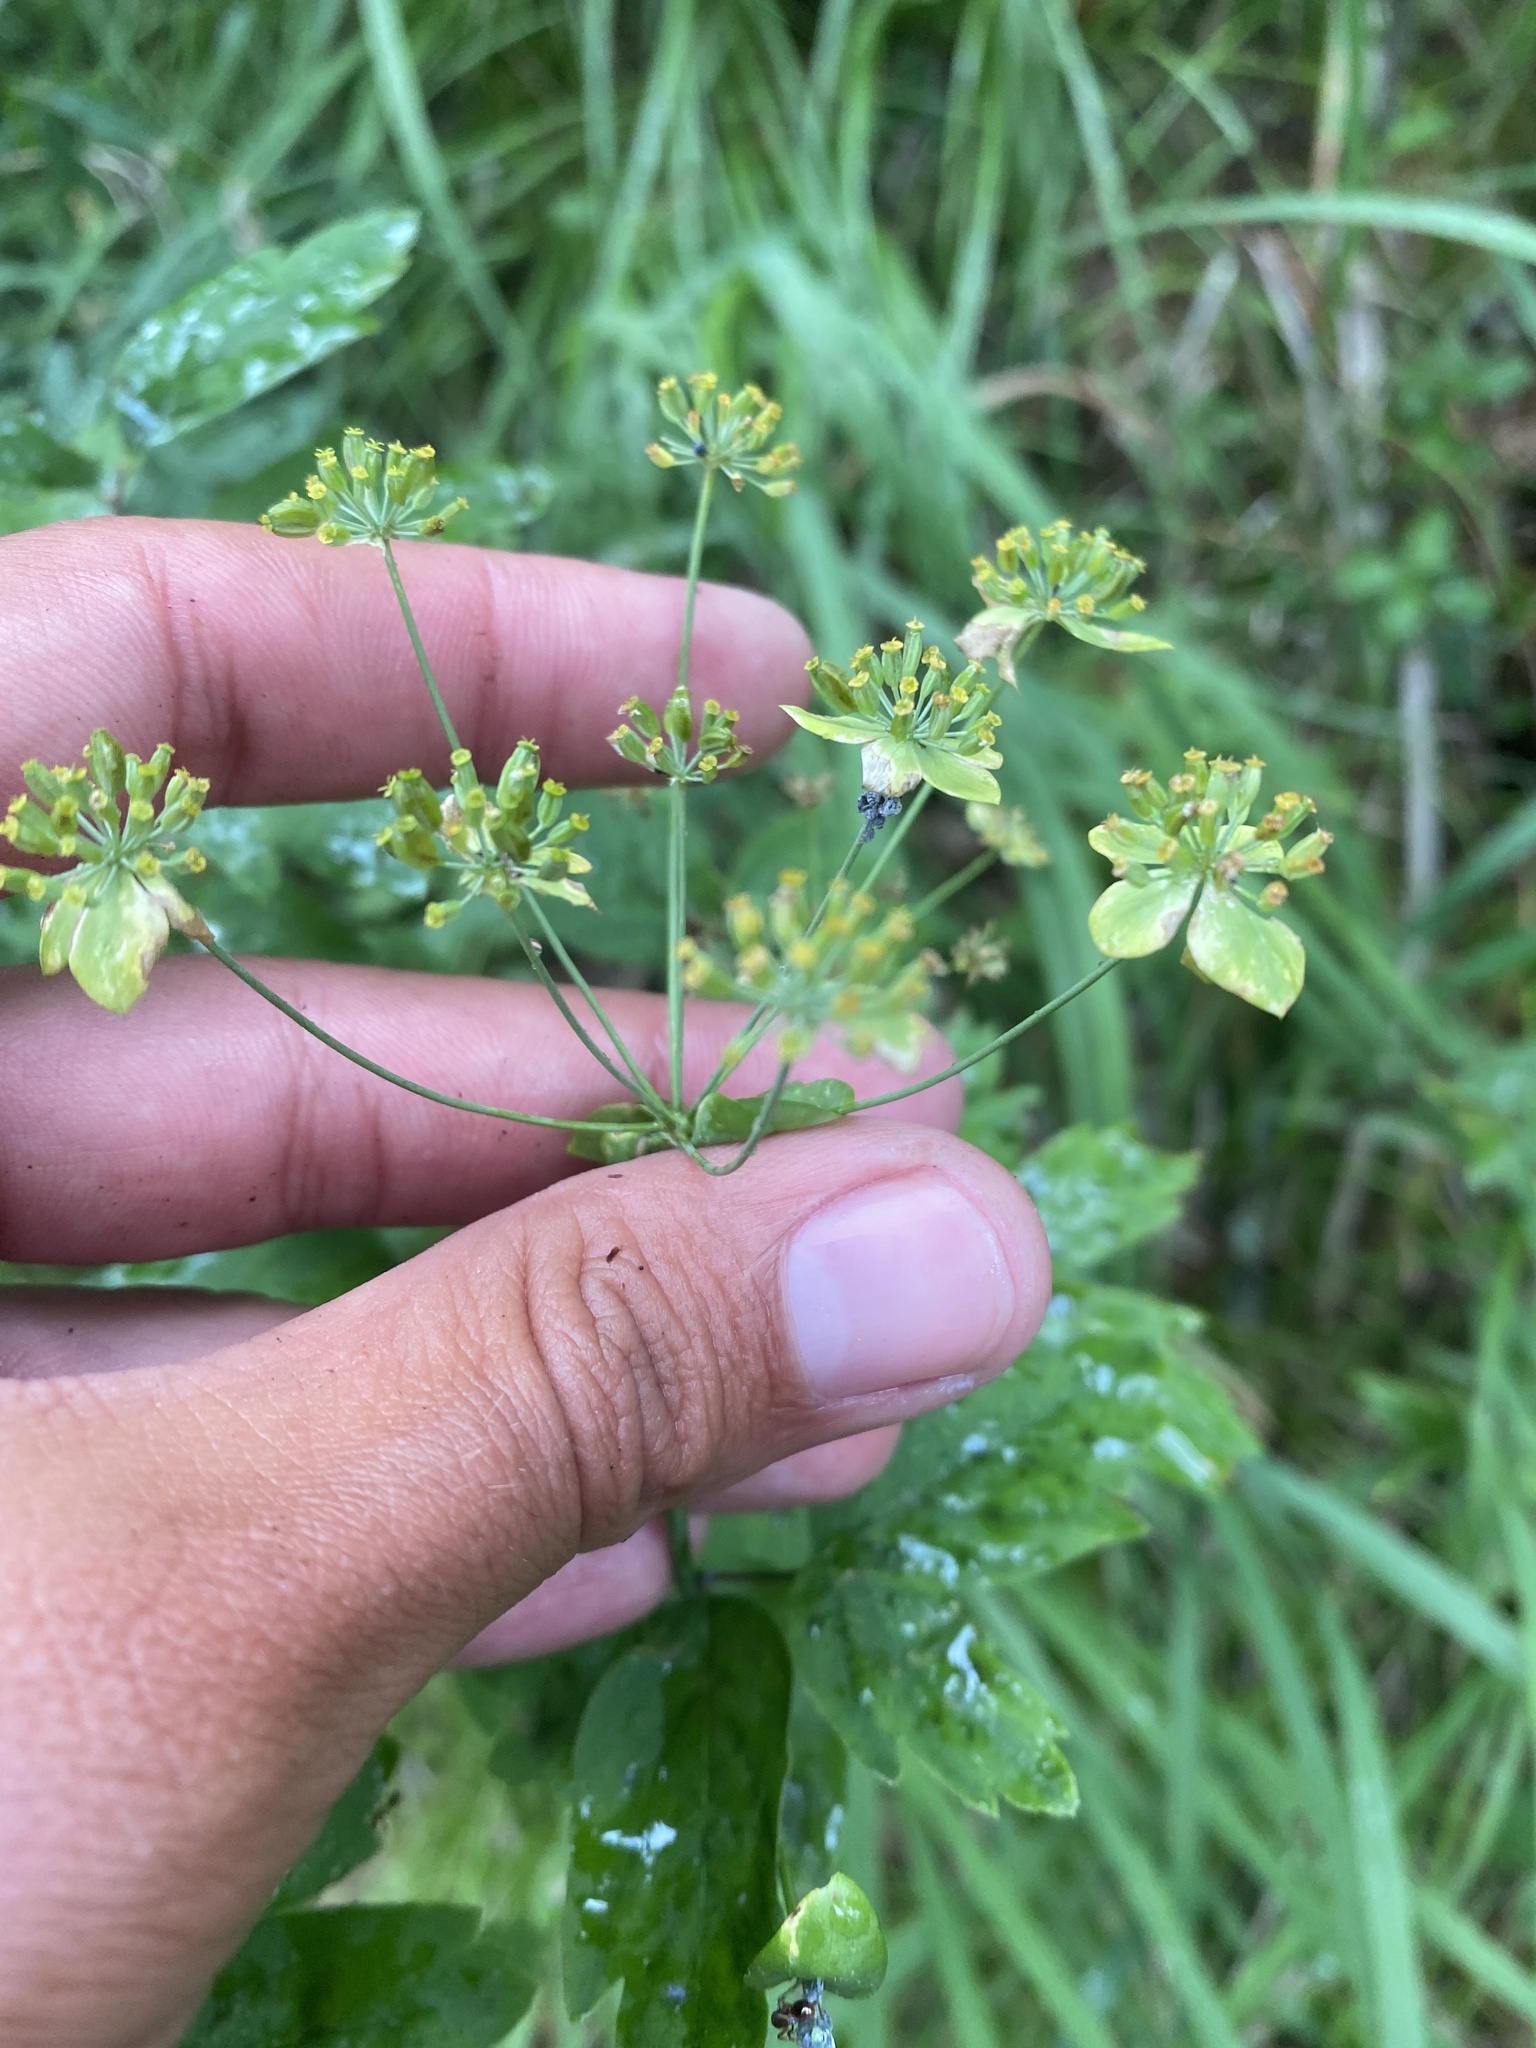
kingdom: Plantae
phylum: Tracheophyta
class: Magnoliopsida
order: Apiales
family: Apiaceae
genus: Bupleurum
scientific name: Bupleurum aureum
